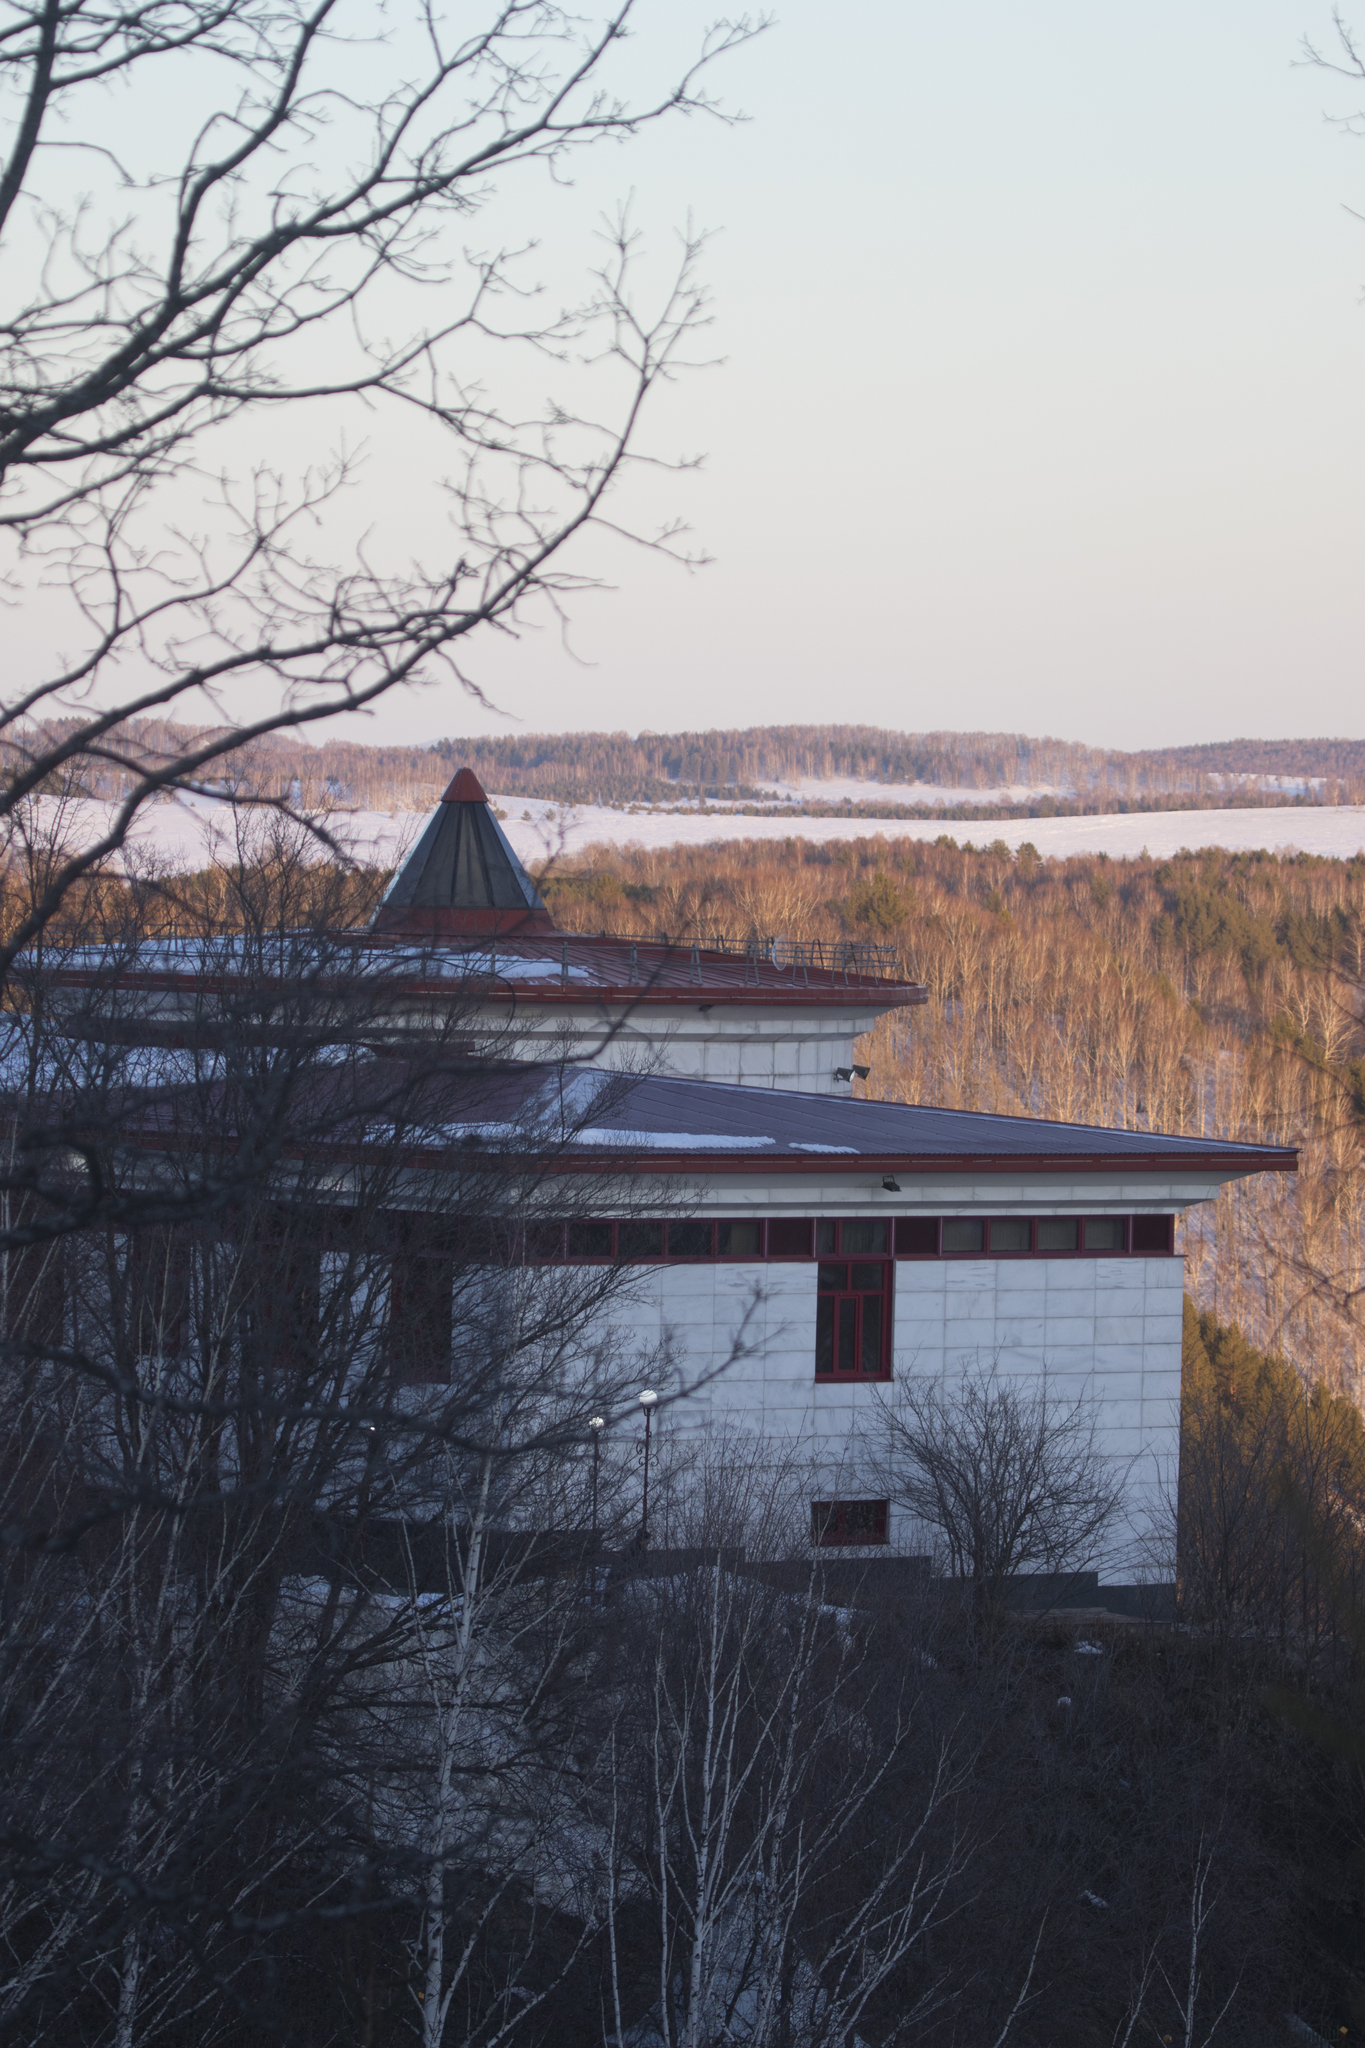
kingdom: Plantae
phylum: Tracheophyta
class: Pinopsida
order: Pinales
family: Pinaceae
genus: Pinus
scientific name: Pinus sylvestris
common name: Scots pine
